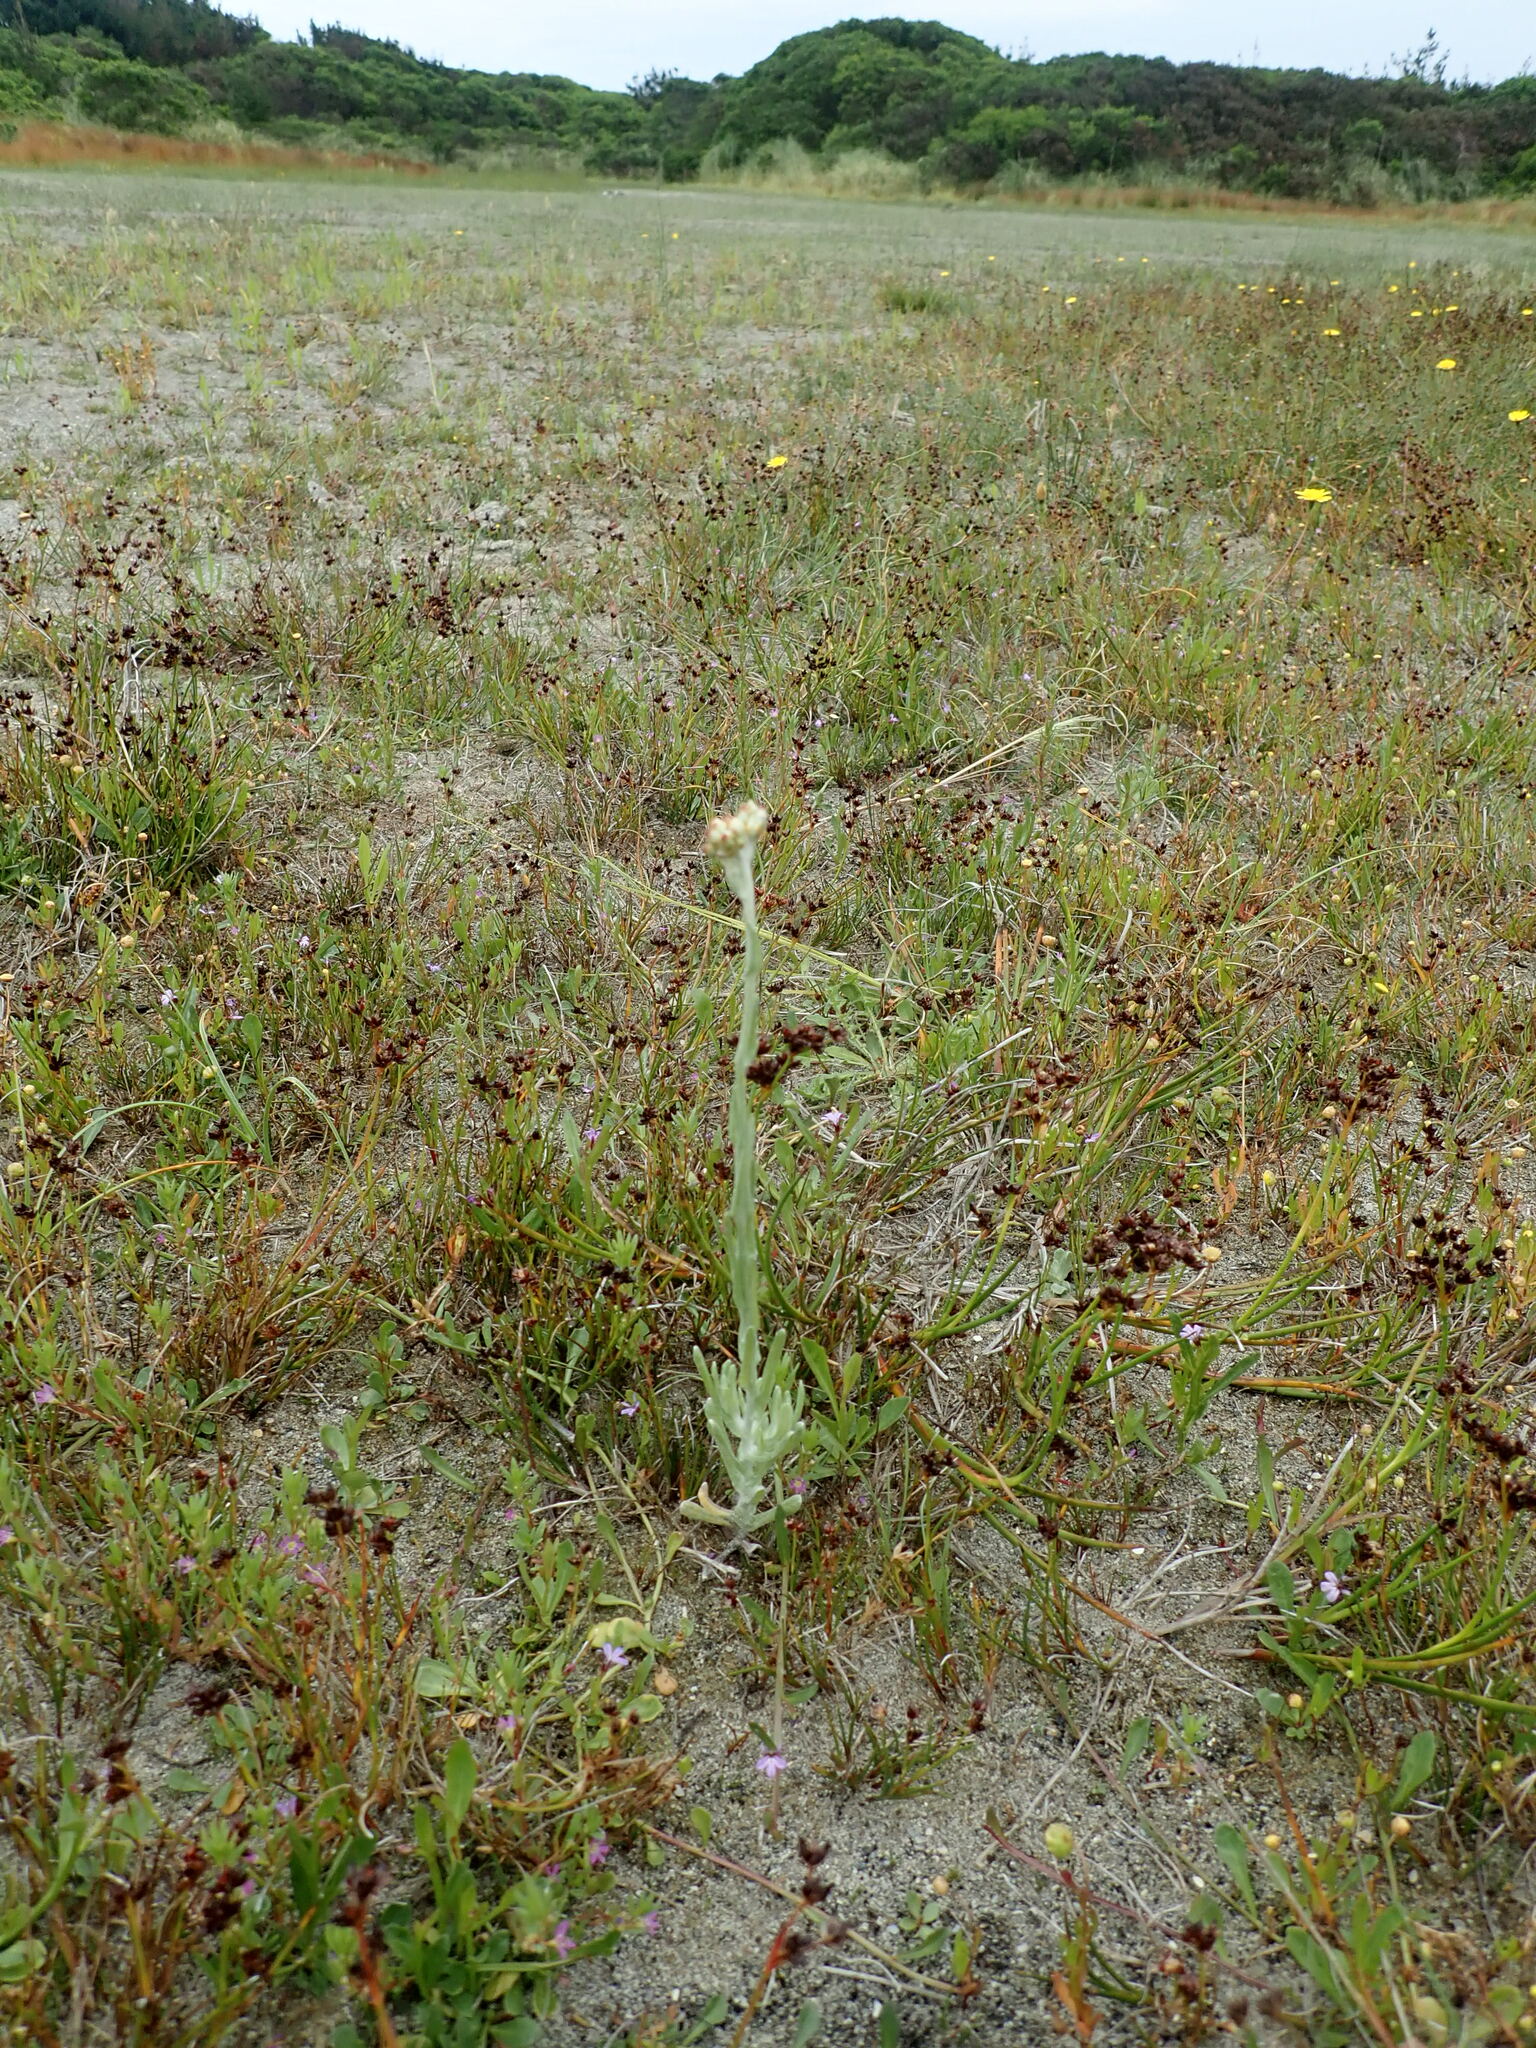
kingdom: Plantae
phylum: Tracheophyta
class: Magnoliopsida
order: Asterales
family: Asteraceae
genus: Helichrysum
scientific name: Helichrysum luteoalbum
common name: Daisy
